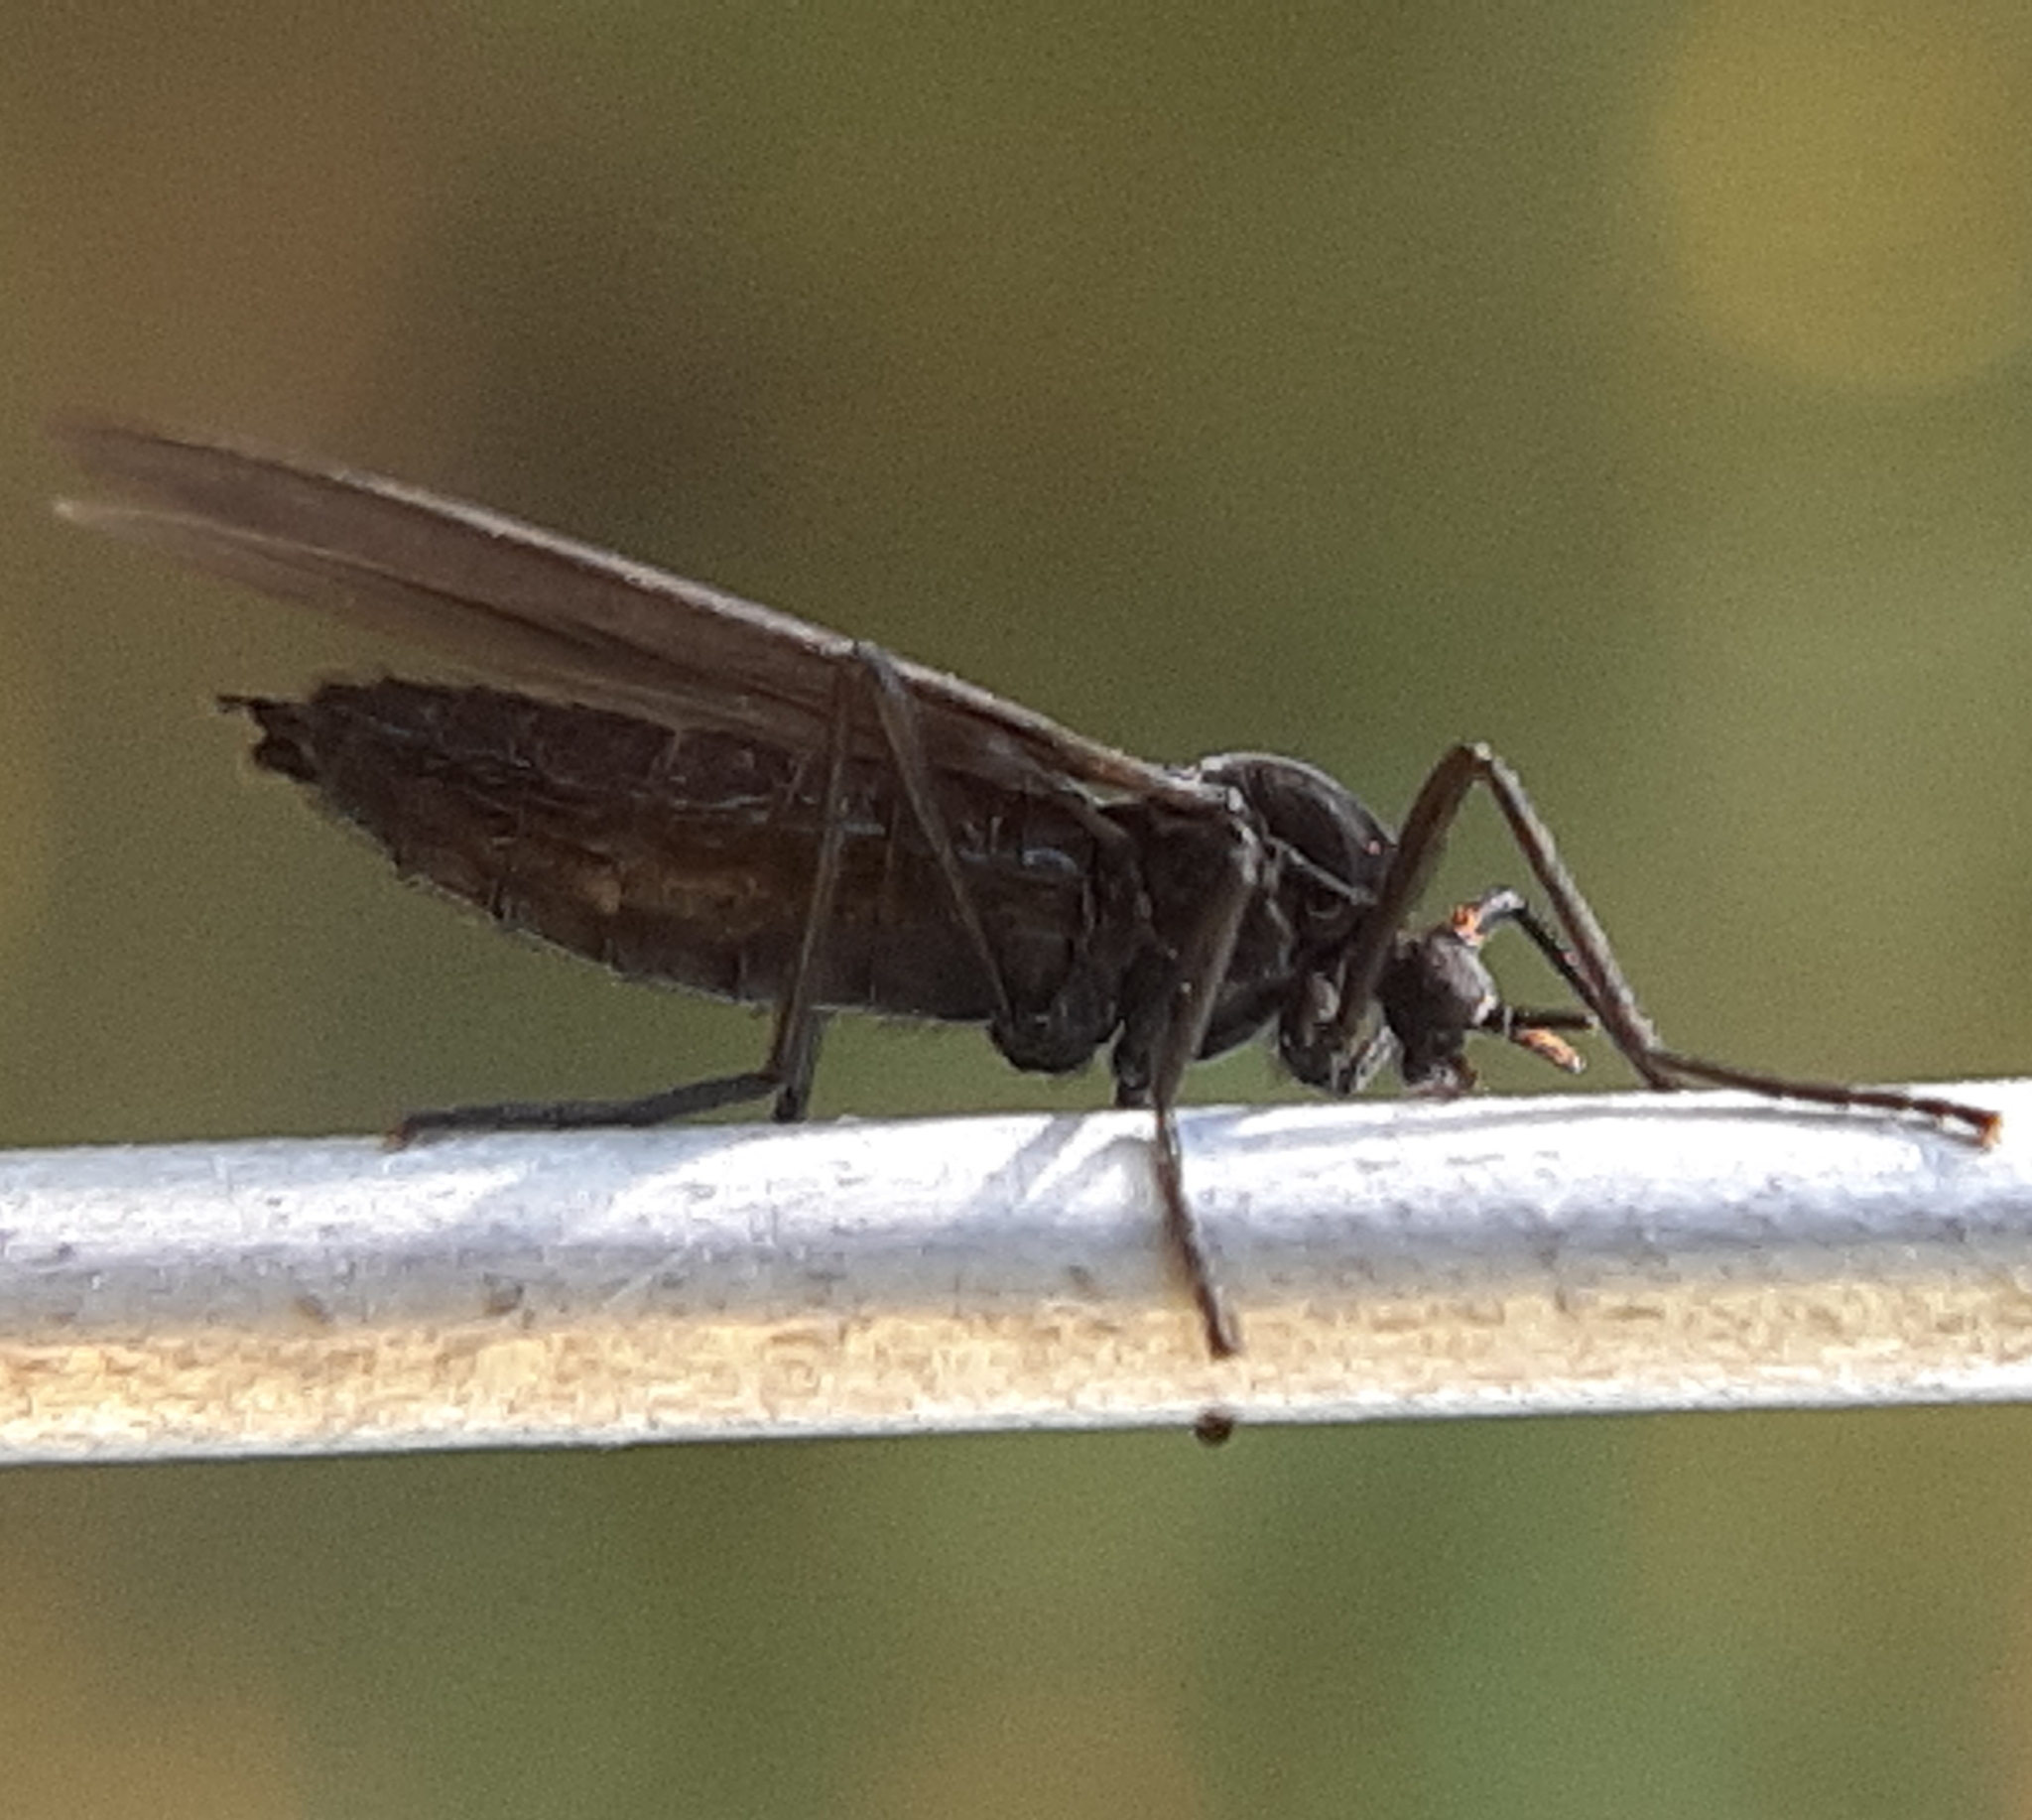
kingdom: Animalia
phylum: Arthropoda
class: Insecta
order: Diptera
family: Bibionidae
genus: Penthetria
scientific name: Penthetria heteroptera
